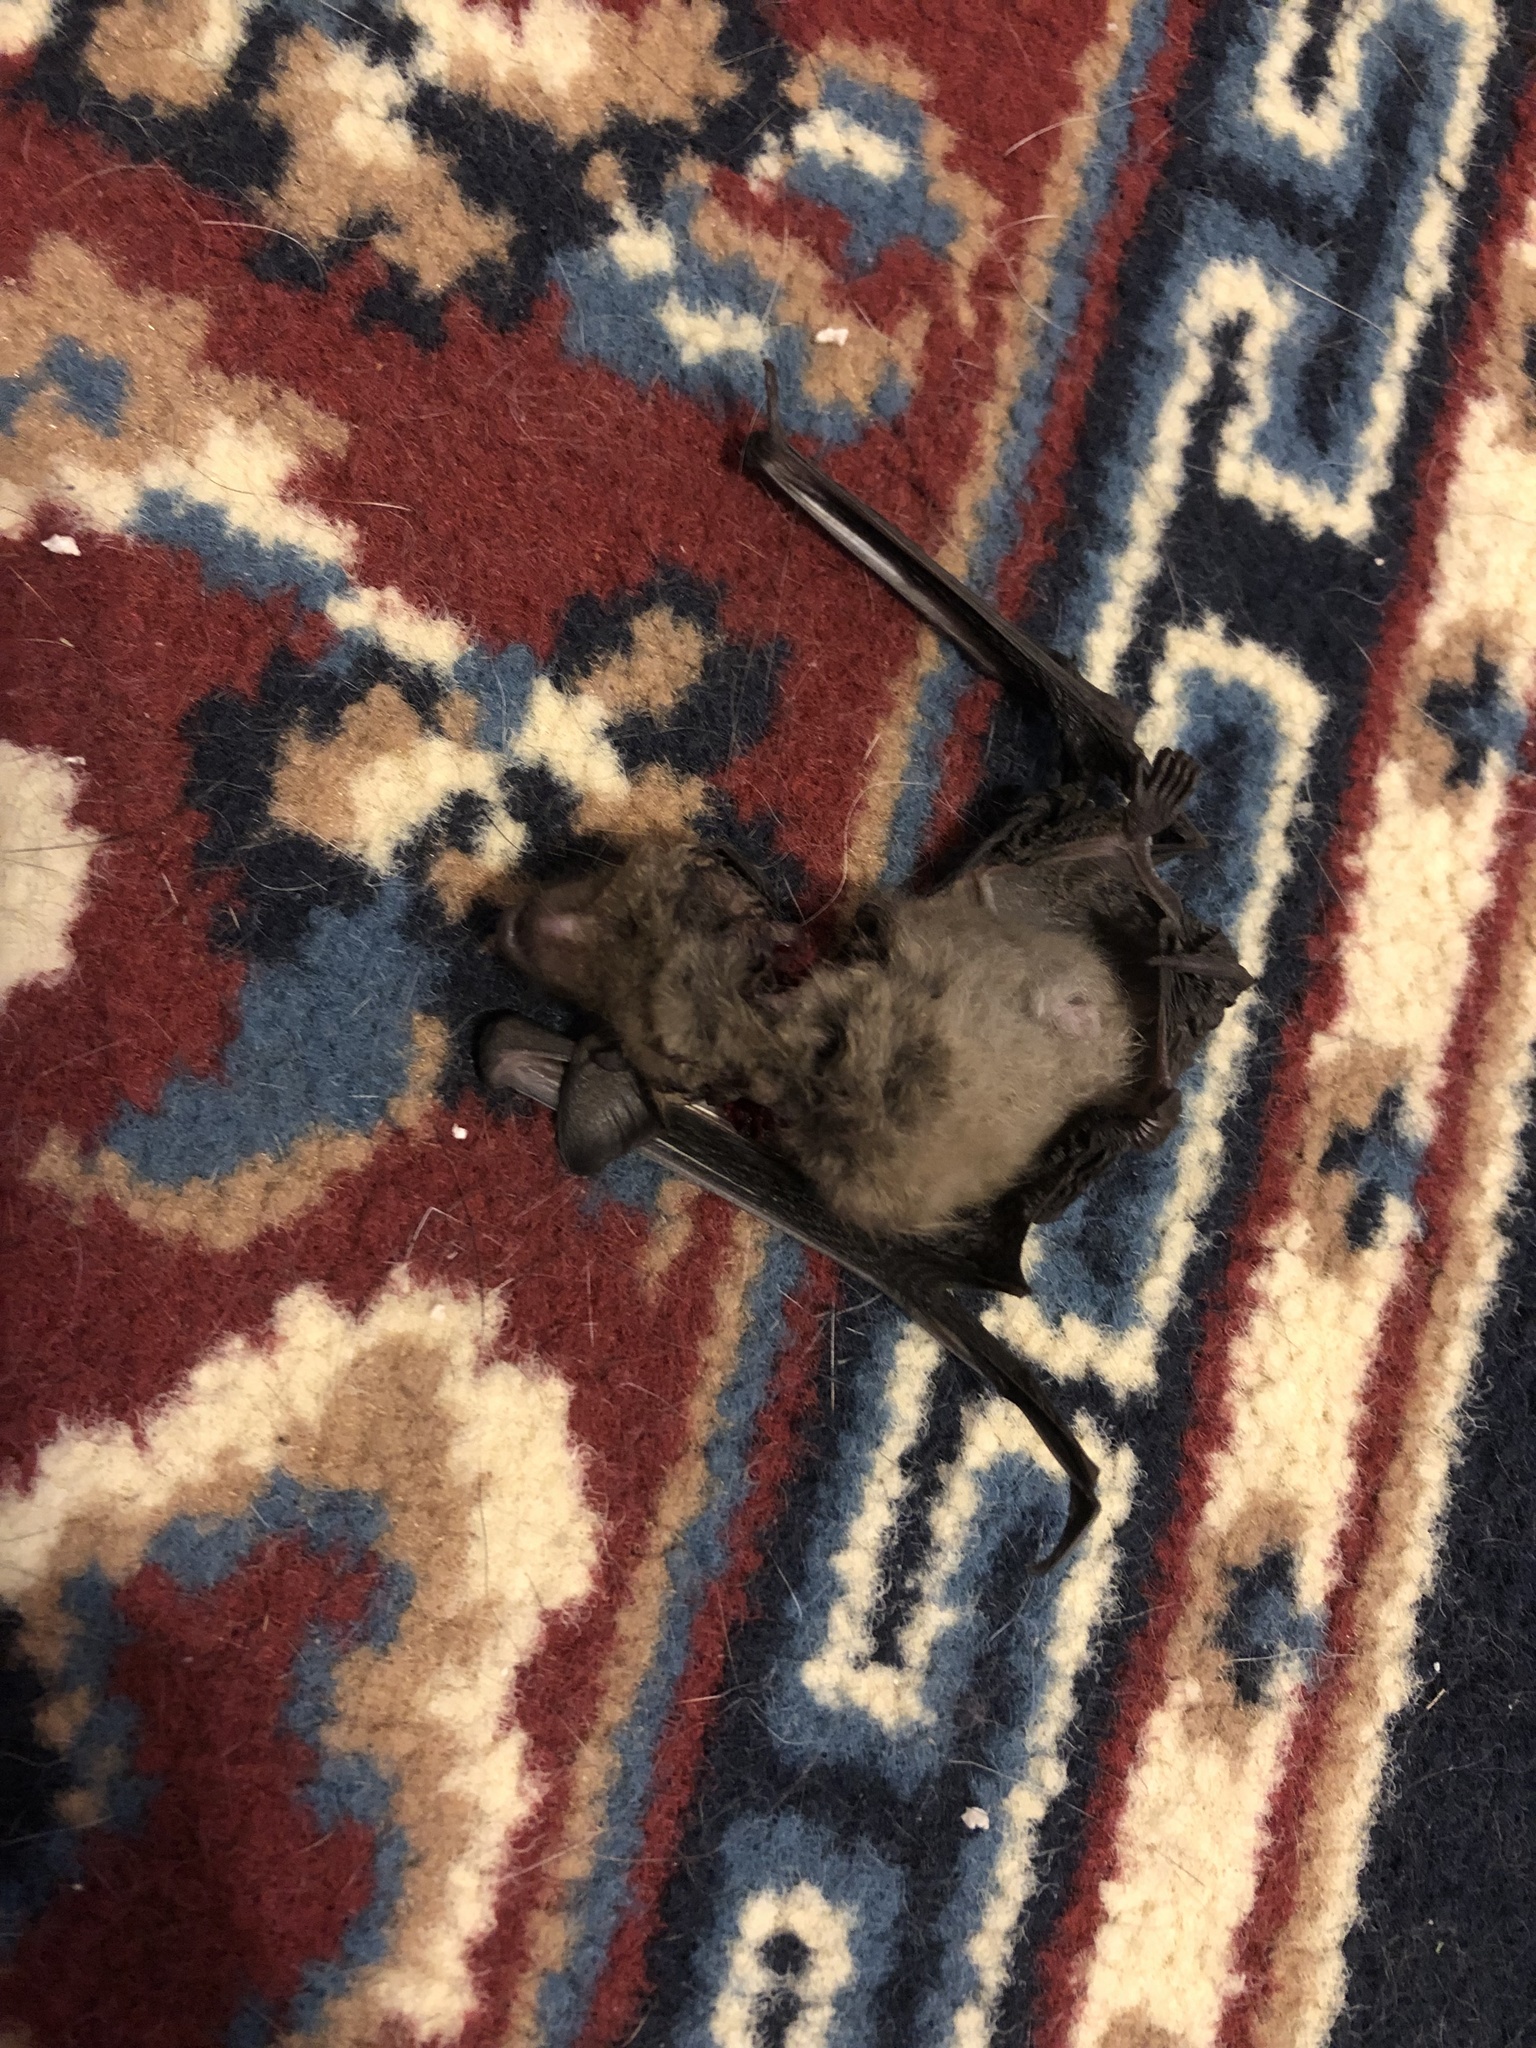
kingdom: Animalia
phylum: Chordata
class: Mammalia
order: Chiroptera
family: Vespertilionidae
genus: Eptesicus
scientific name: Eptesicus fuscus
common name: Big brown bat
